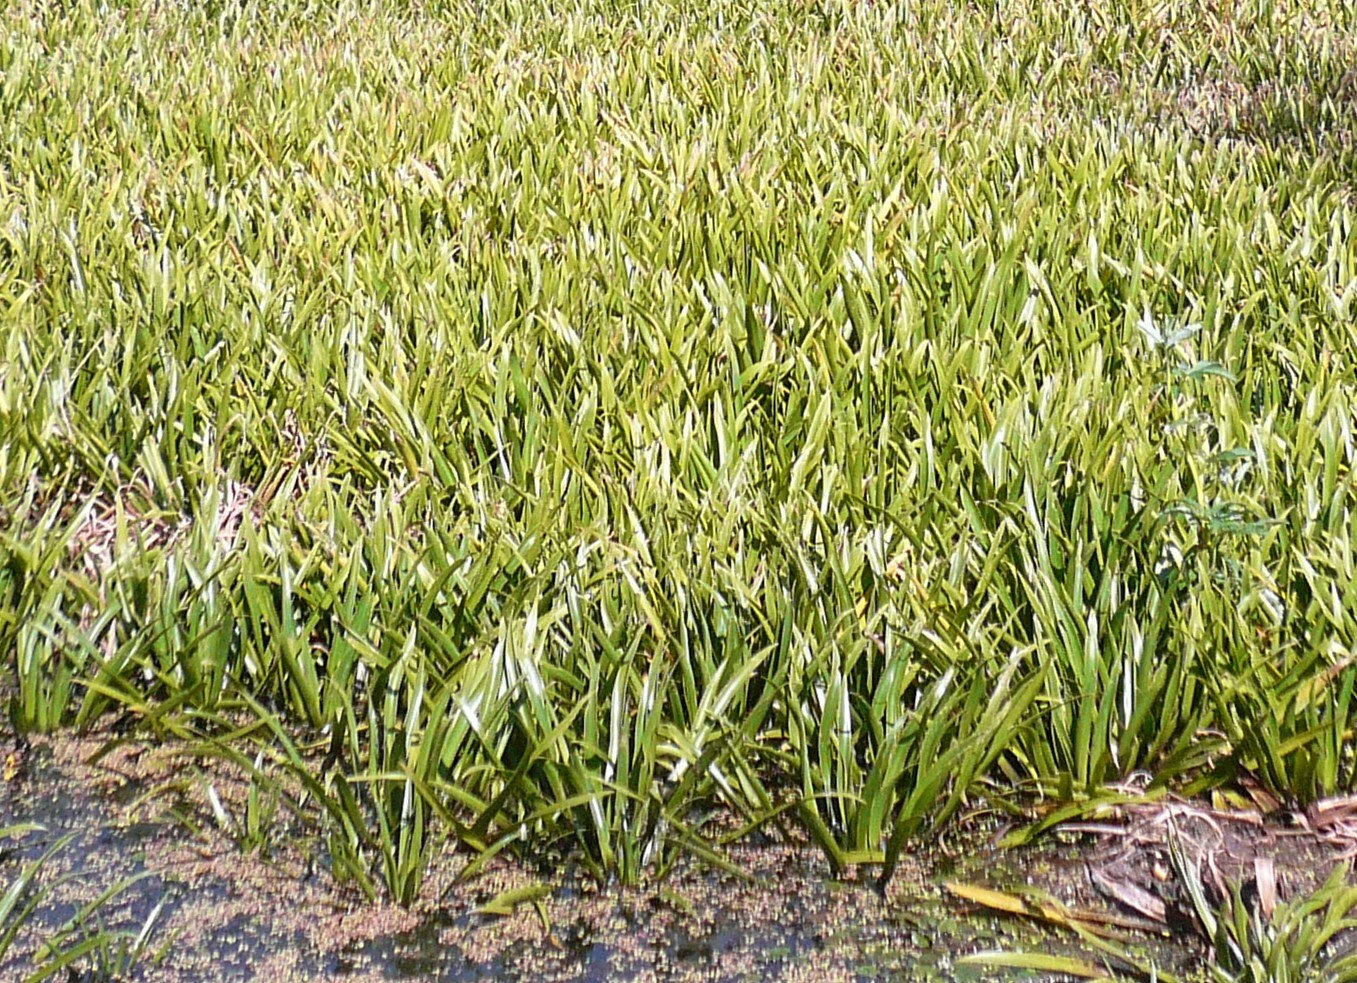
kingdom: Plantae
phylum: Tracheophyta
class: Liliopsida
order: Alismatales
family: Hydrocharitaceae
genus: Stratiotes
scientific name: Stratiotes aloides
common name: Water-soldier
